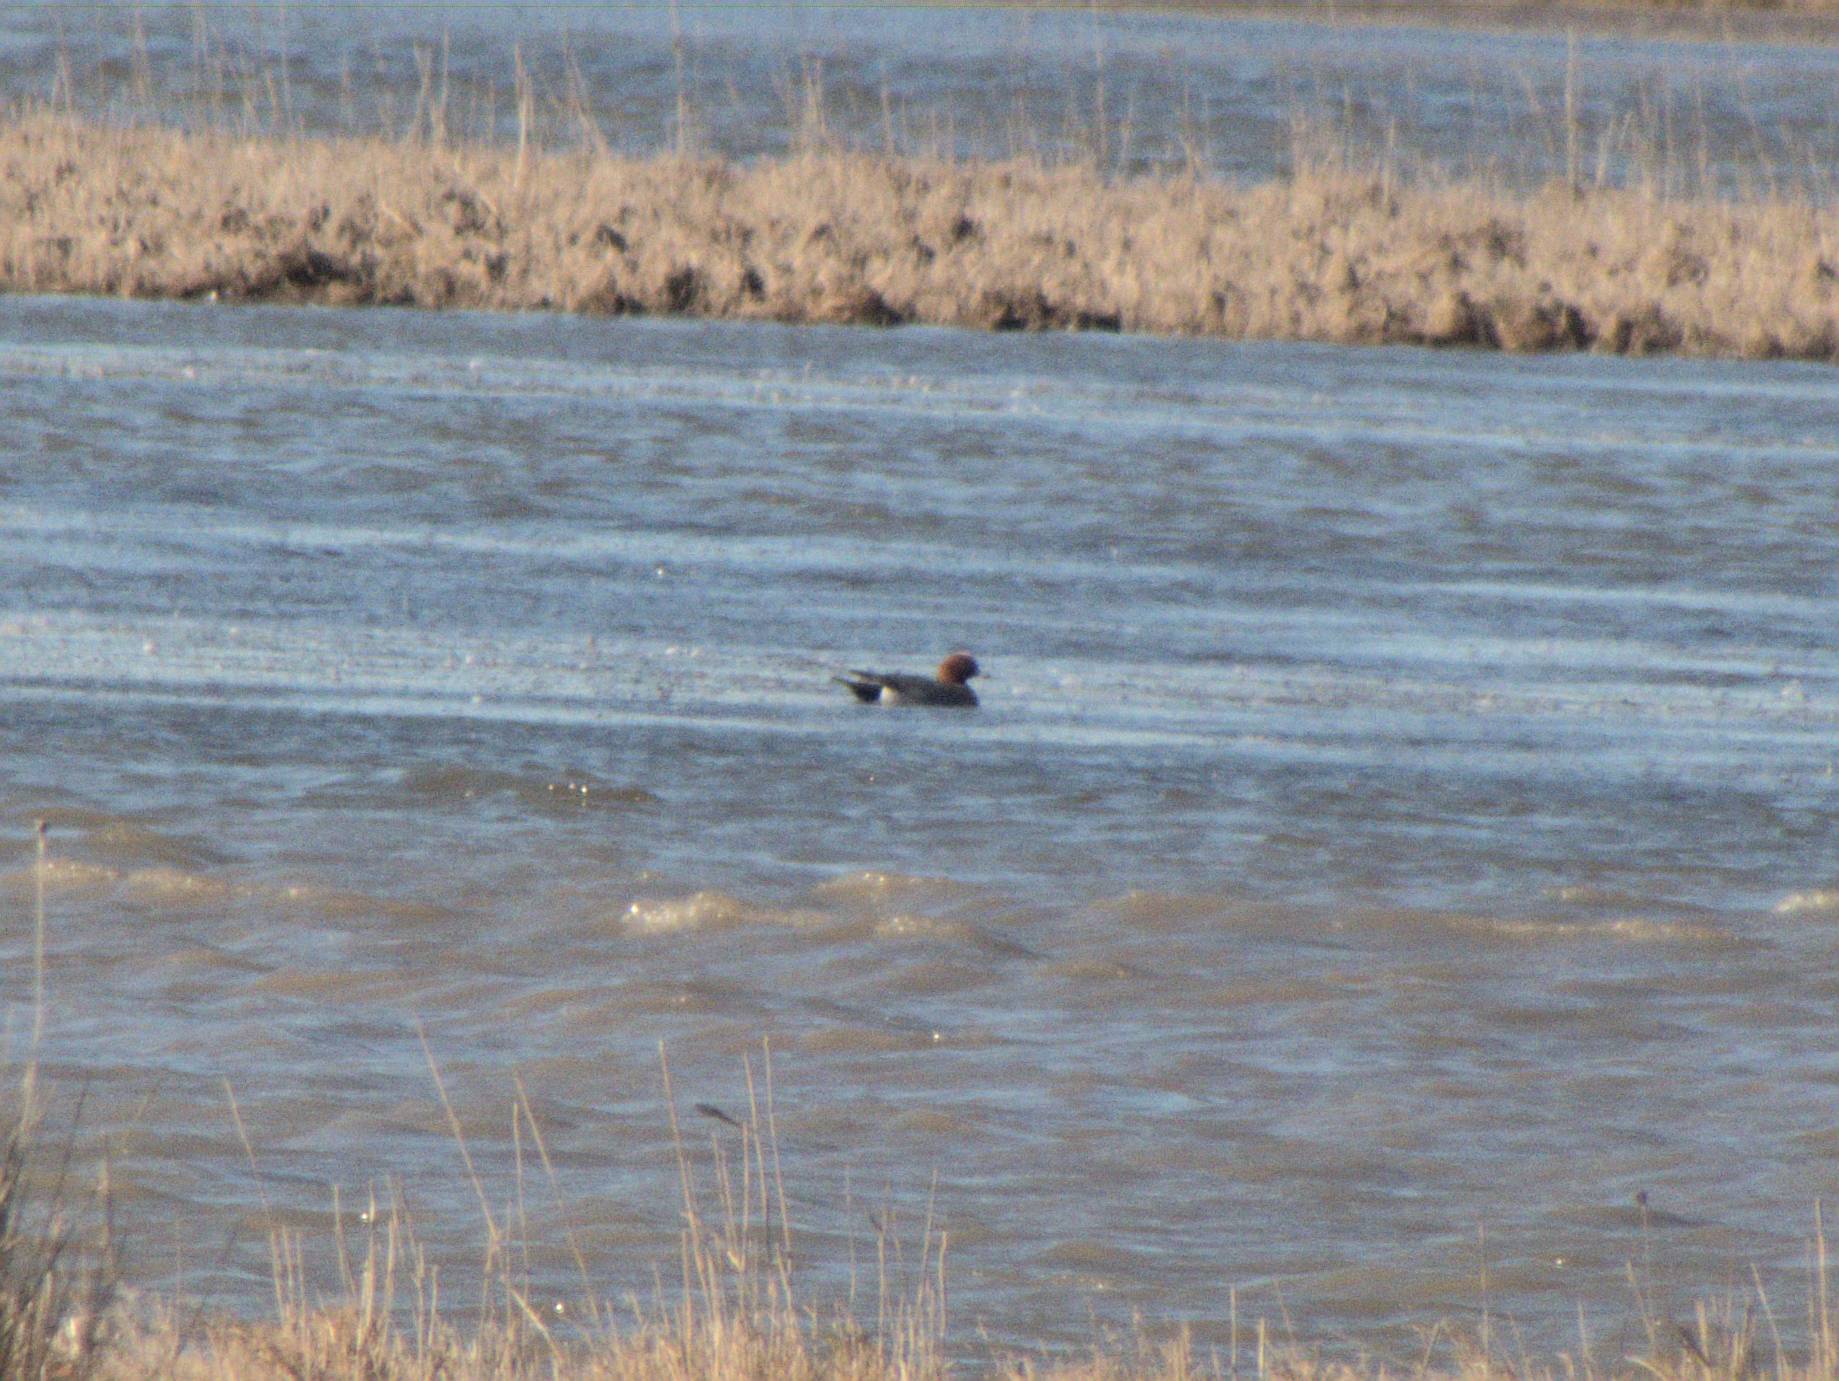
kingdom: Animalia
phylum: Chordata
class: Aves
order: Anseriformes
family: Anatidae
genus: Mareca
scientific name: Mareca penelope
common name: Eurasian wigeon
